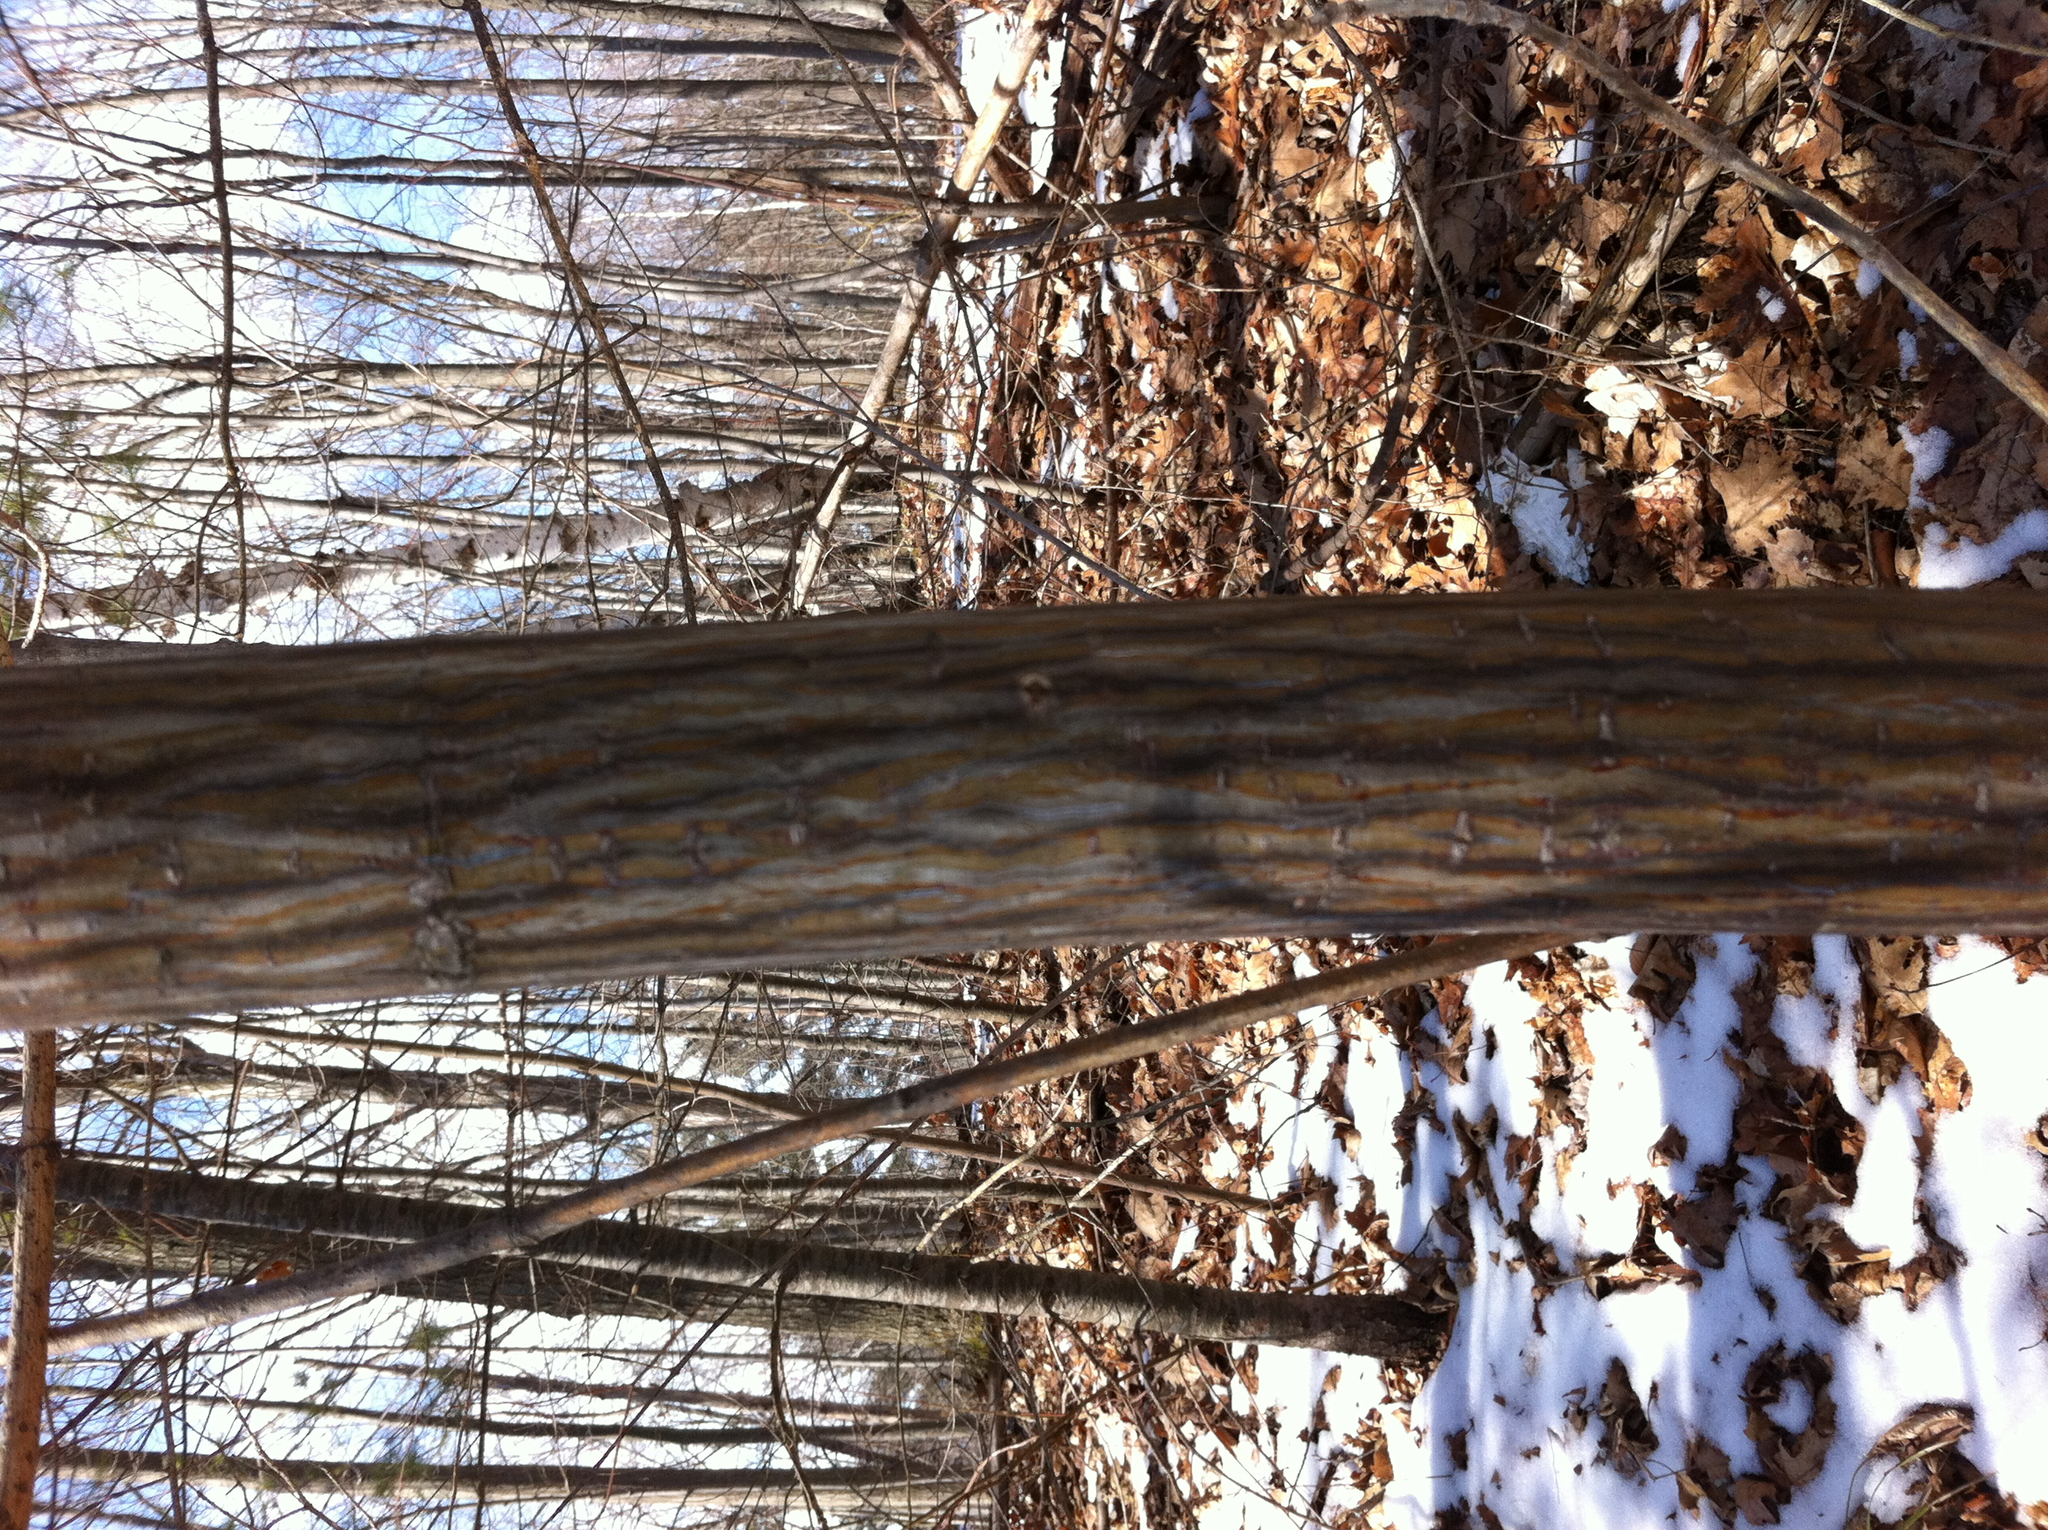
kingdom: Plantae
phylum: Tracheophyta
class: Magnoliopsida
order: Sapindales
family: Sapindaceae
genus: Acer
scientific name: Acer pensylvanicum
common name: Moosewood
